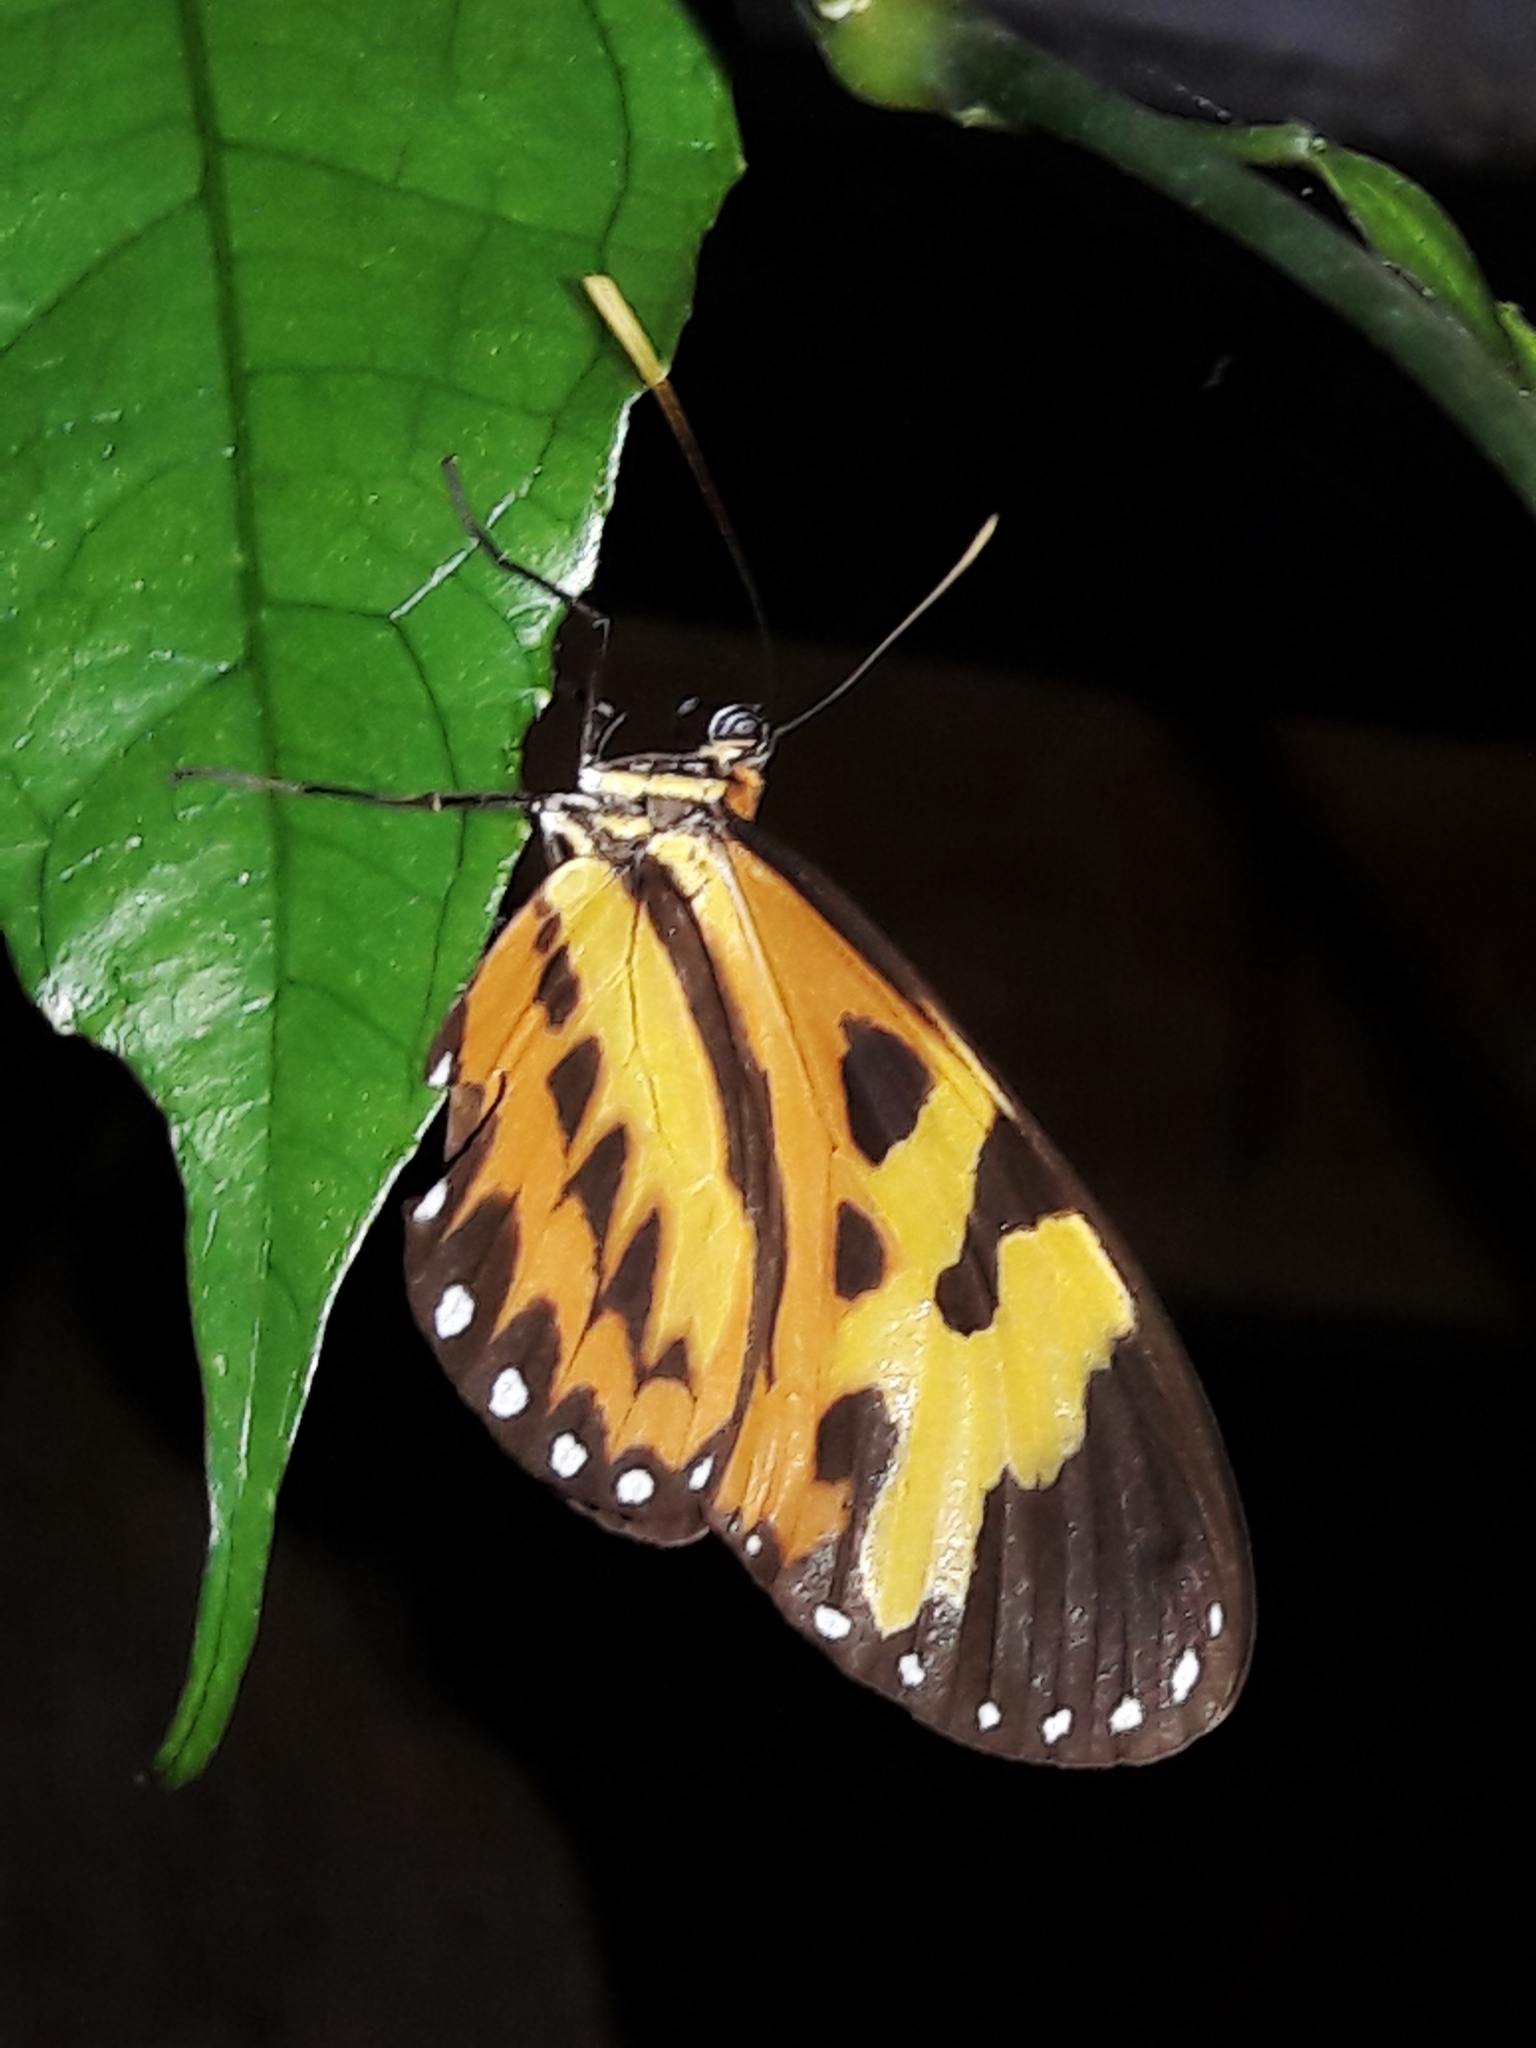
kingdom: Animalia
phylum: Arthropoda
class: Insecta
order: Lepidoptera
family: Nymphalidae
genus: Mechanitis
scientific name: Mechanitis polymnia
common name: Disturbed tigerwing
